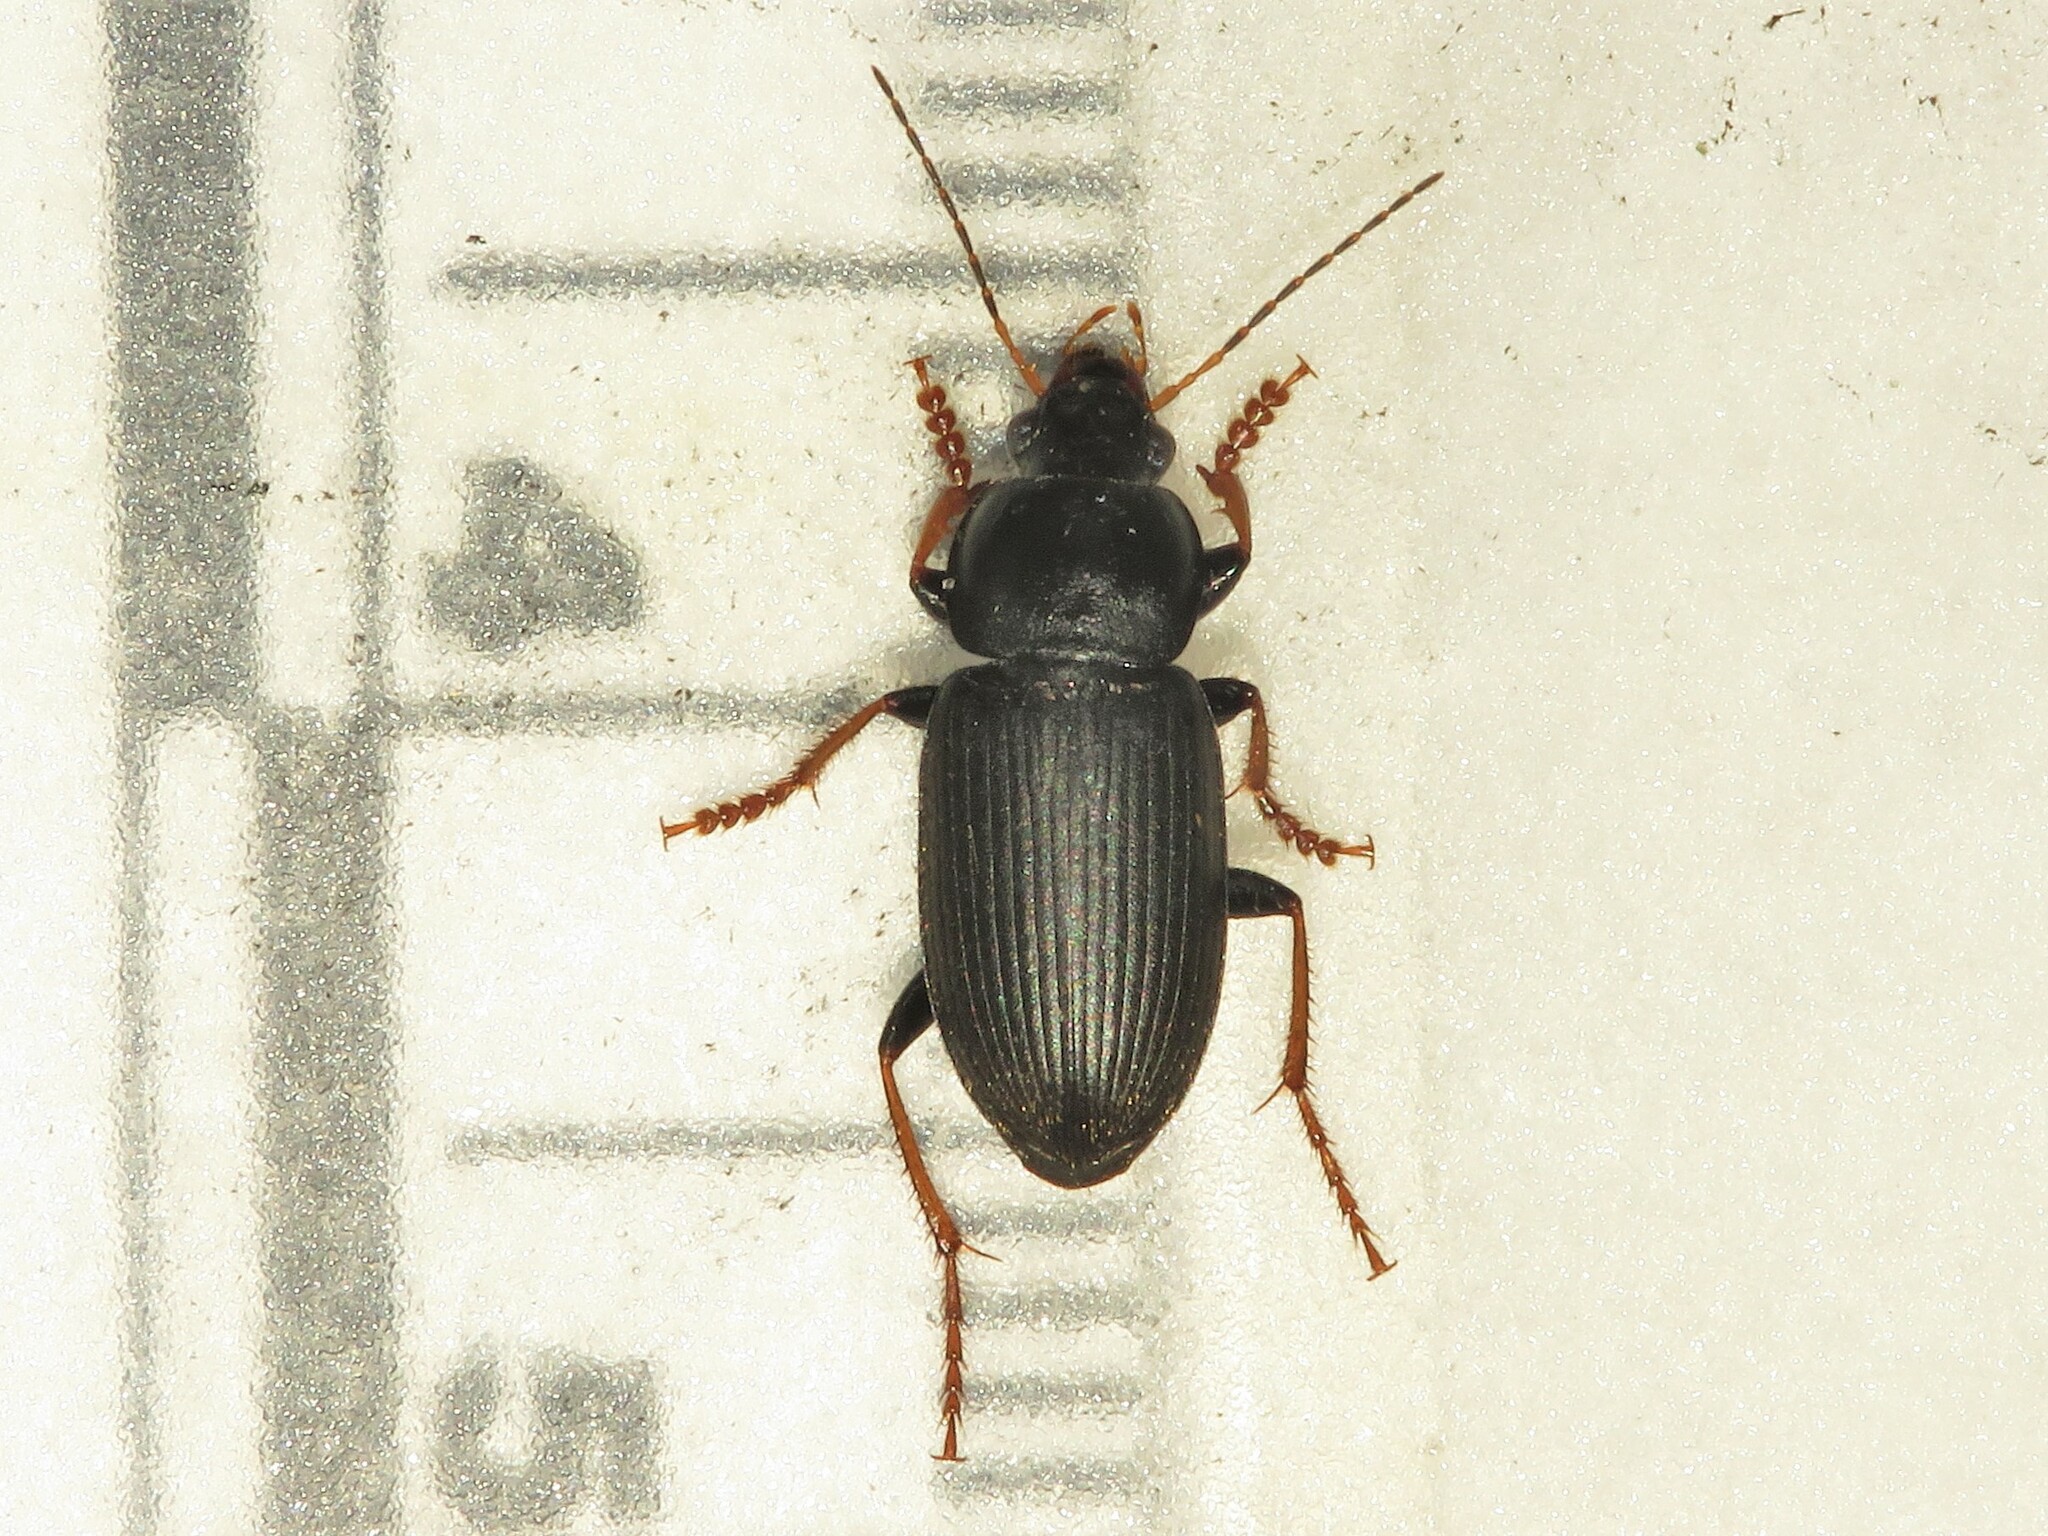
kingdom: Animalia
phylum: Arthropoda
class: Insecta
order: Coleoptera
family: Carabidae
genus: Amphasia
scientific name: Amphasia sericea
